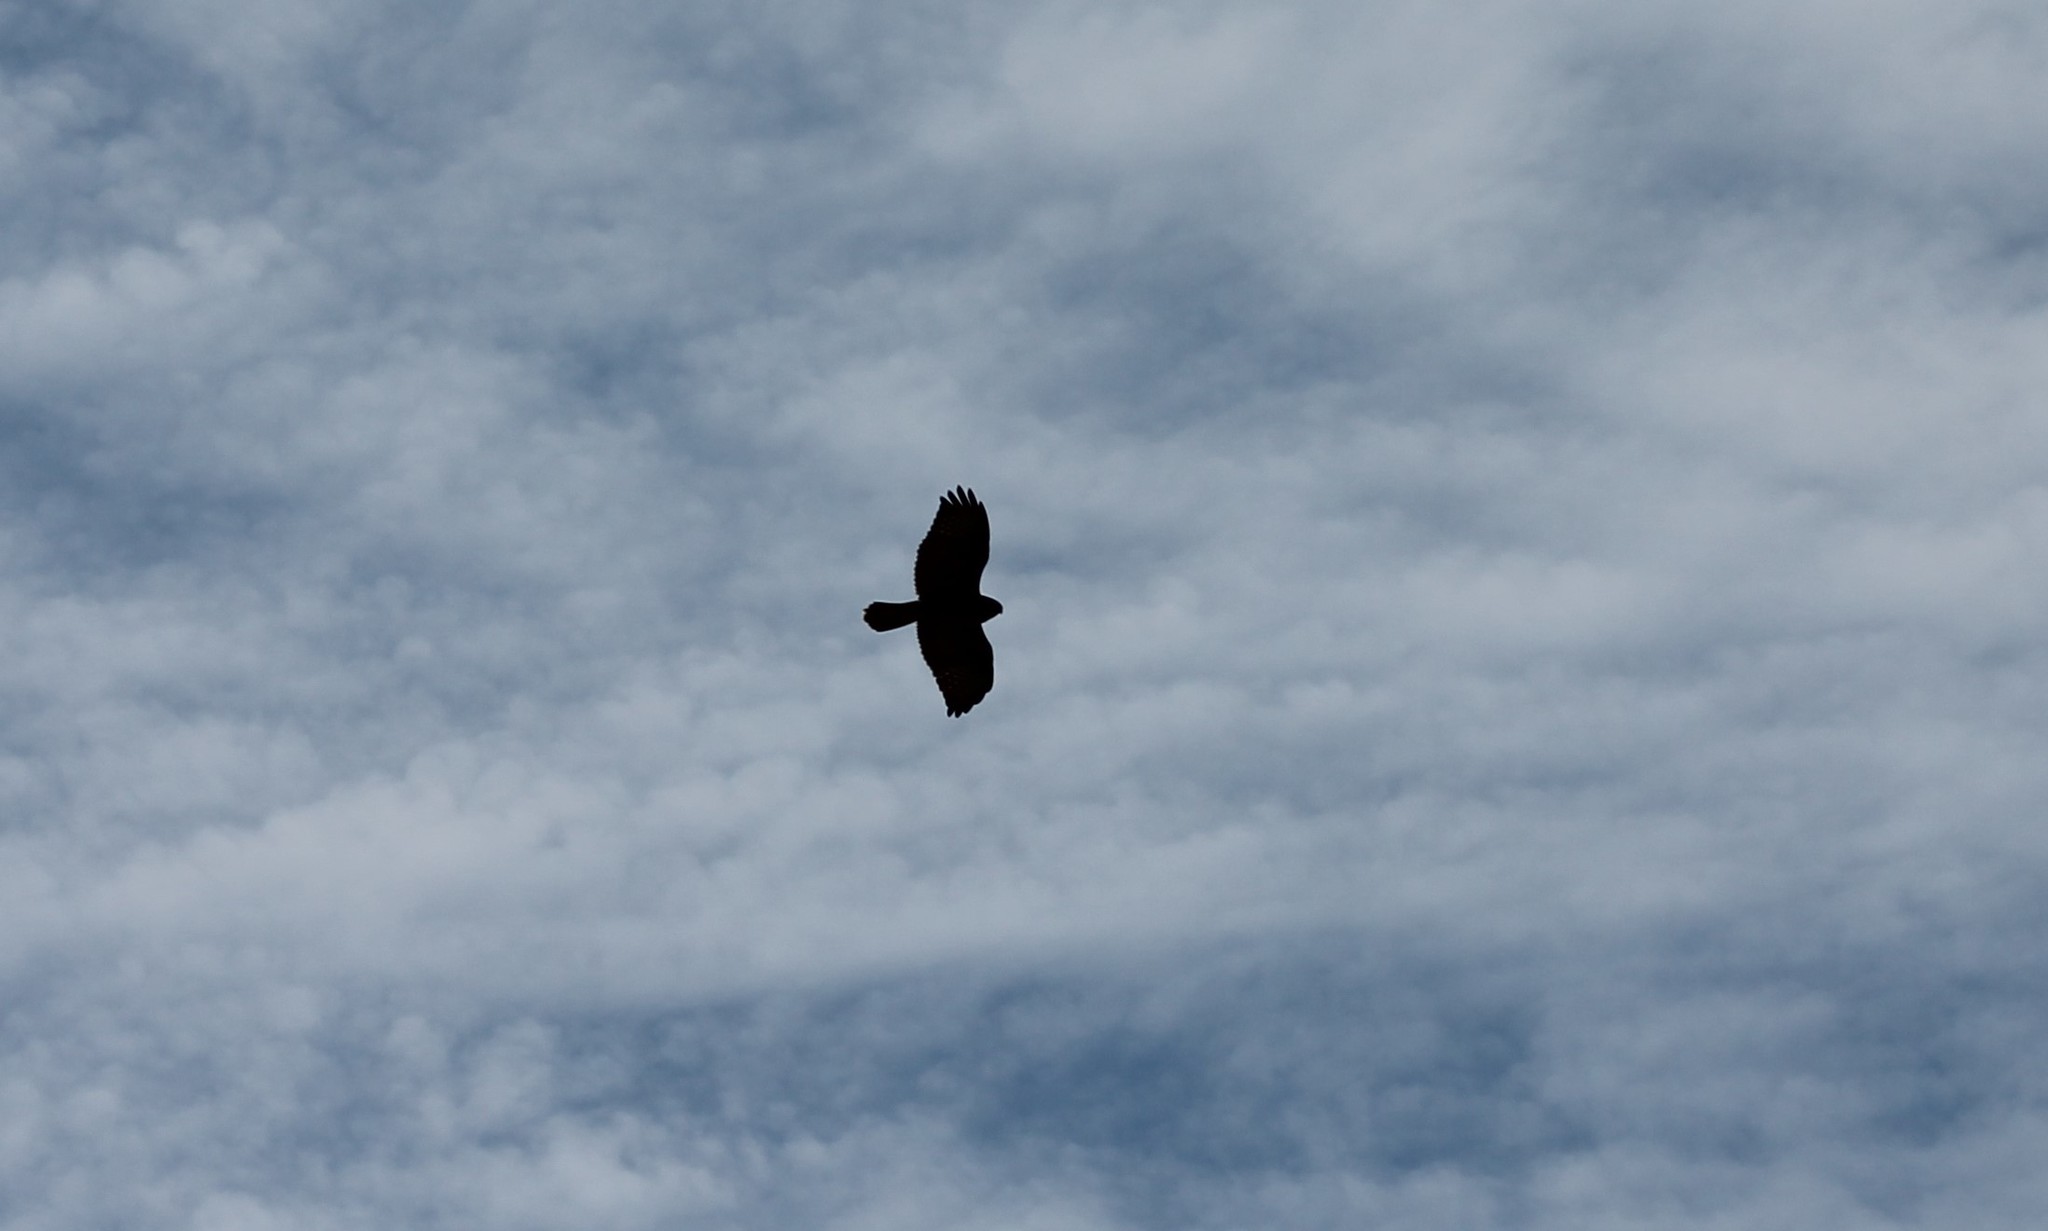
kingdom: Animalia
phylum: Chordata
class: Aves
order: Accipitriformes
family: Accipitridae
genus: Buteo
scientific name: Buteo buteo
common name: Common buzzard
